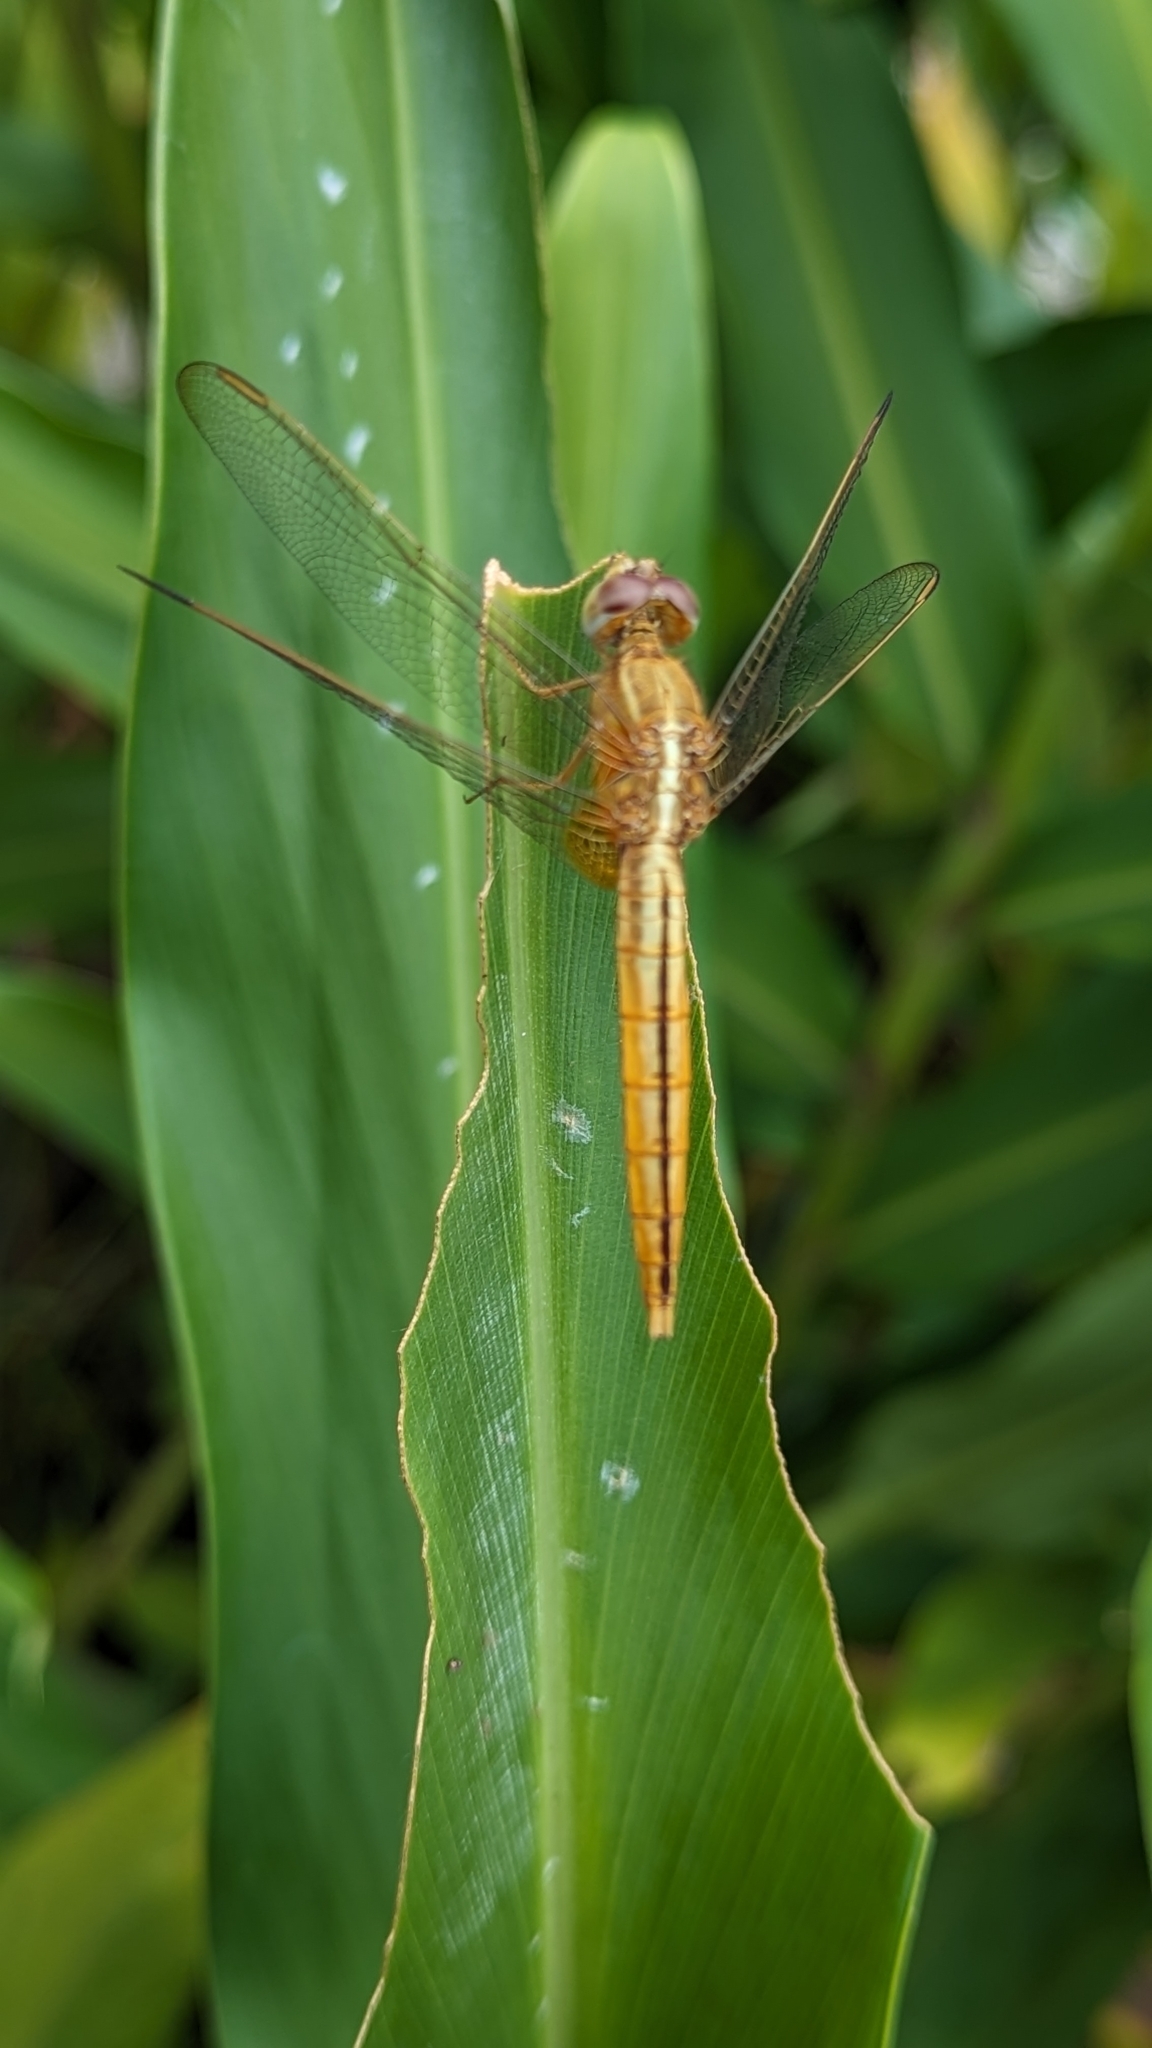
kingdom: Animalia
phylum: Arthropoda
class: Insecta
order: Odonata
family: Libellulidae
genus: Crocothemis
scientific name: Crocothemis servilia
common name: Scarlet skimmer
